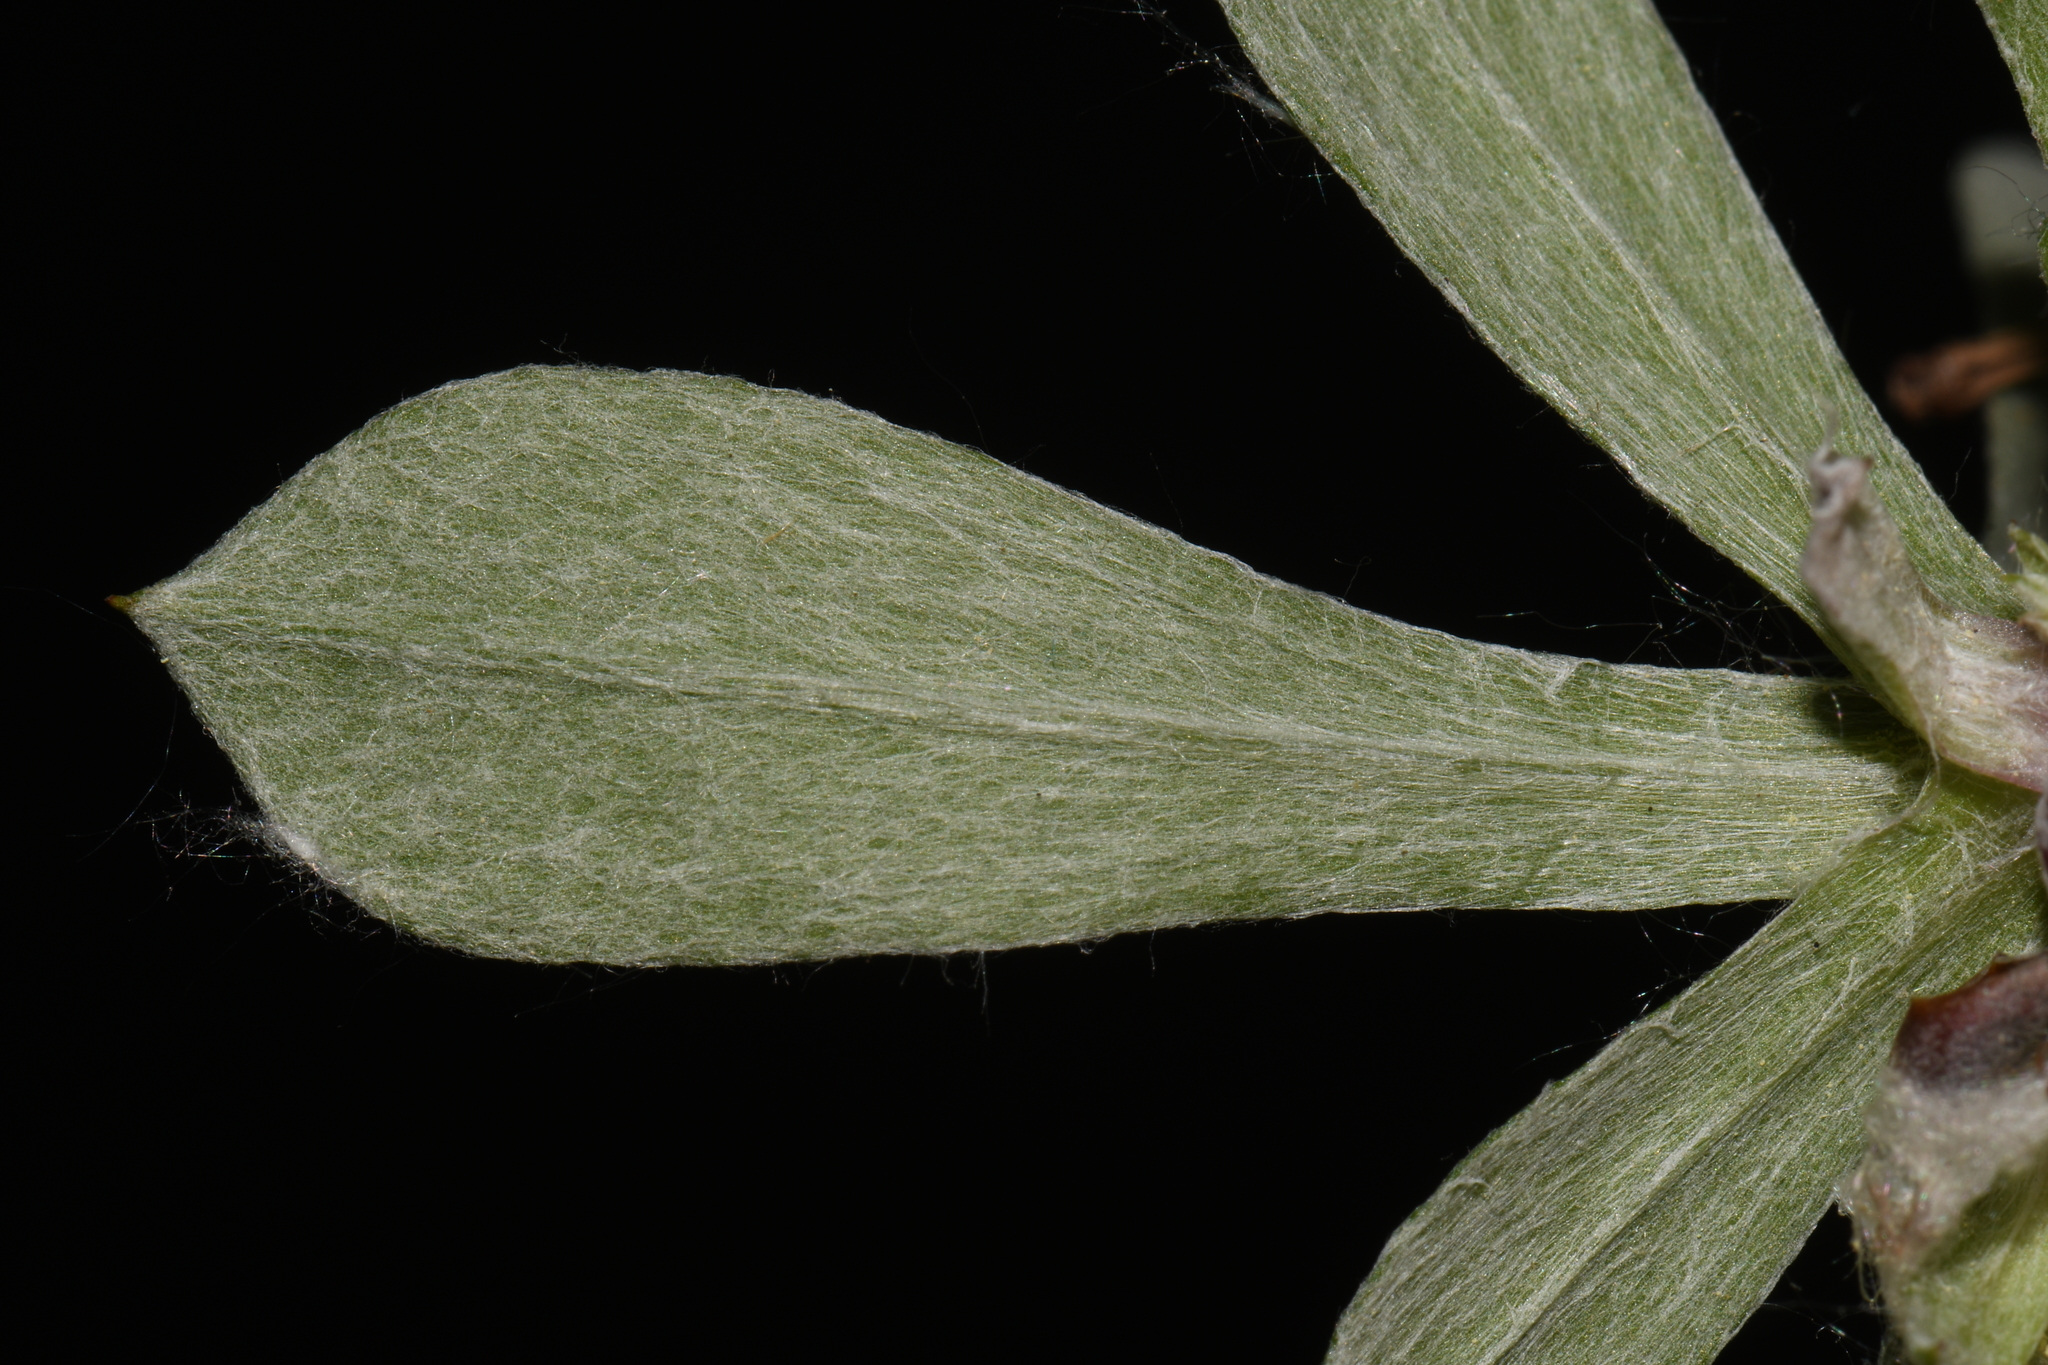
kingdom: Plantae
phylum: Tracheophyta
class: Magnoliopsida
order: Asterales
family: Asteraceae
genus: Antennaria
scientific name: Antennaria howellii
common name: Howell's pussytoes
